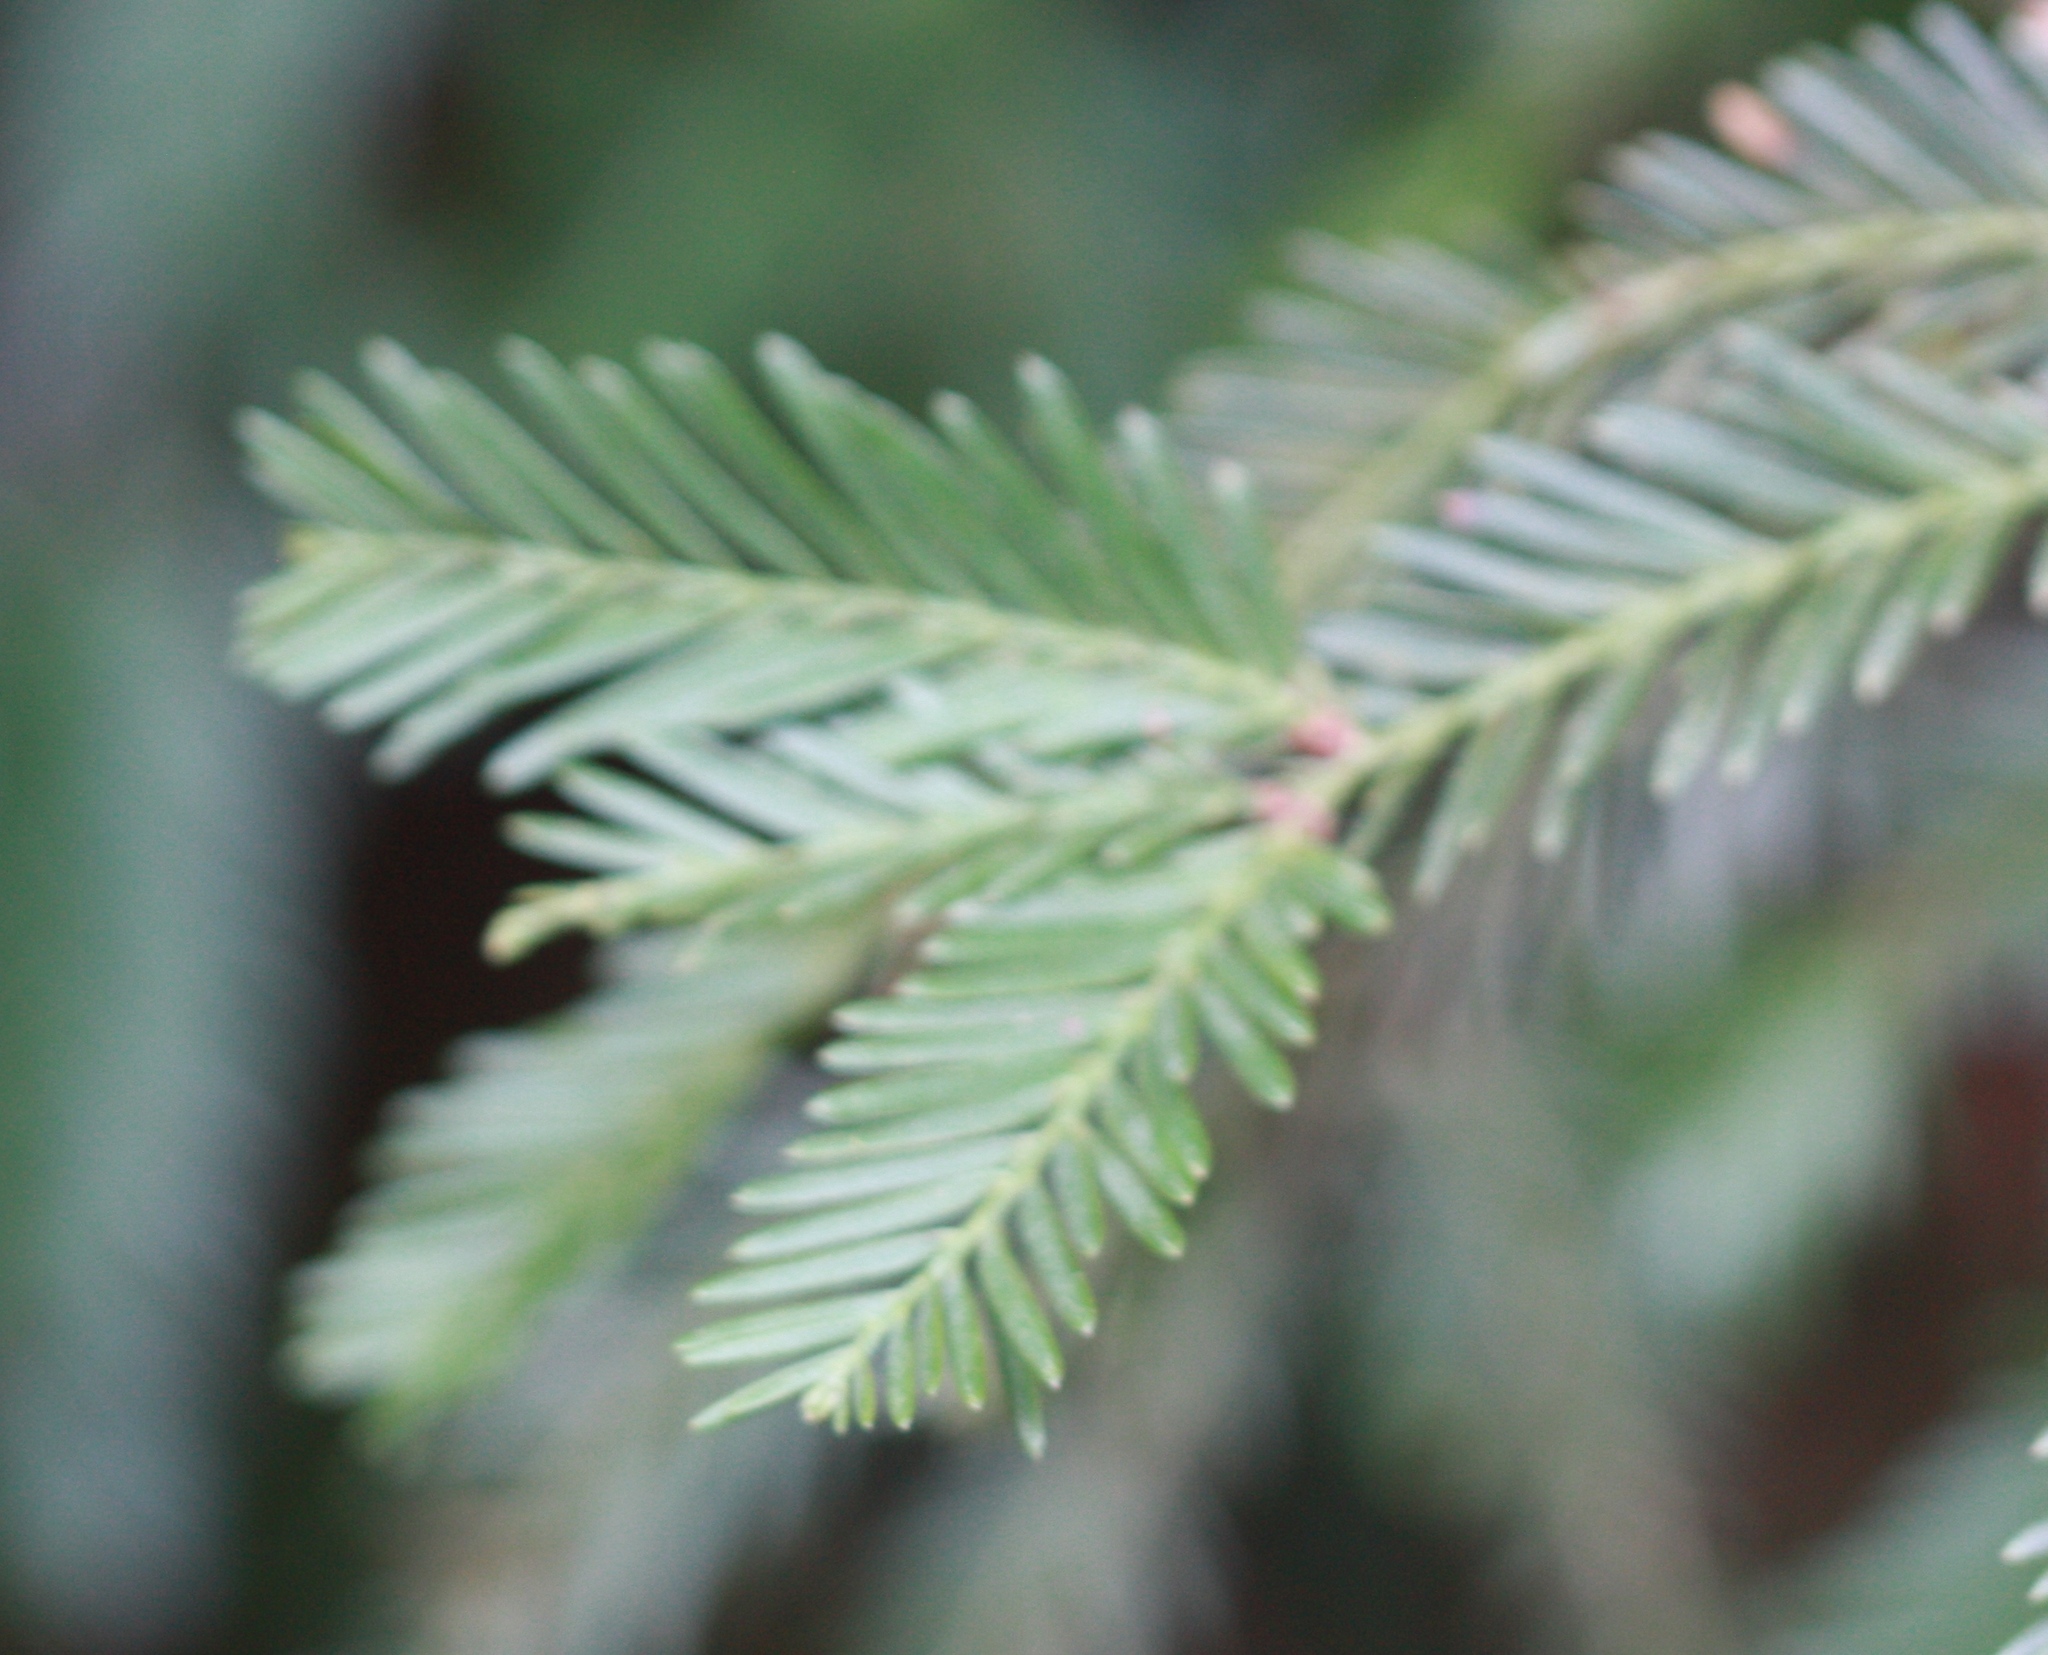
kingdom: Plantae
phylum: Tracheophyta
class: Pinopsida
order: Pinales
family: Cupressaceae
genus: Sequoia
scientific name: Sequoia sempervirens
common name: Coast redwood
